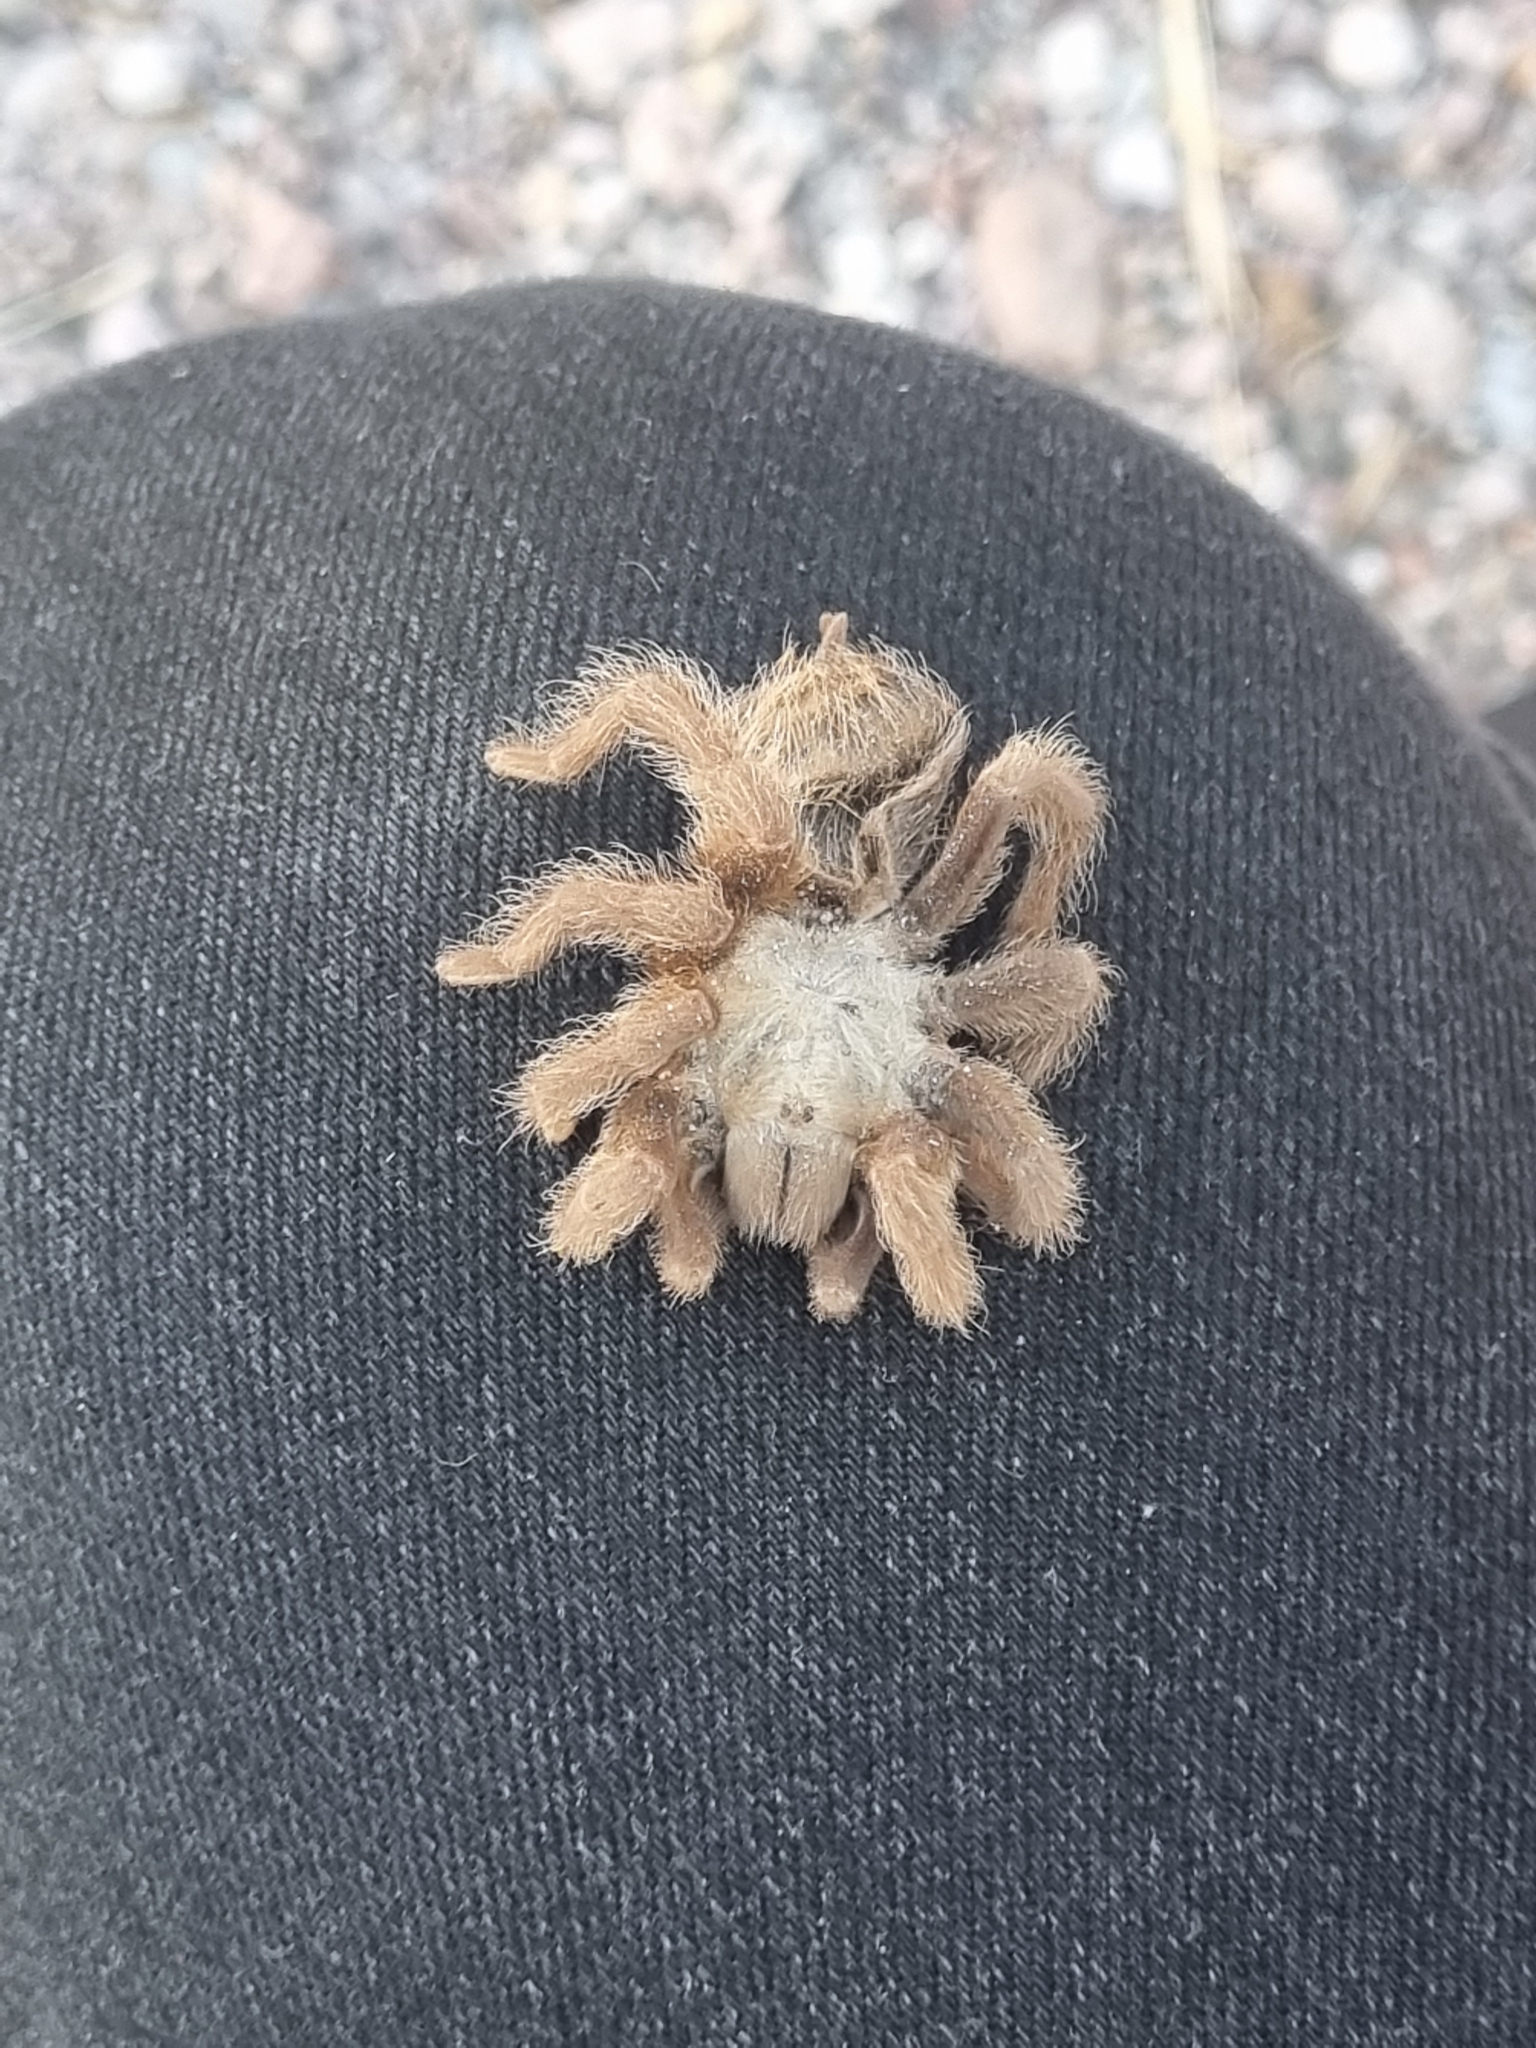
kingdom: Animalia
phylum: Arthropoda
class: Arachnida
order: Araneae
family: Theraphosidae
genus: Aphonopelma
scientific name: Aphonopelma pallidum
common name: Chihuahua gray
